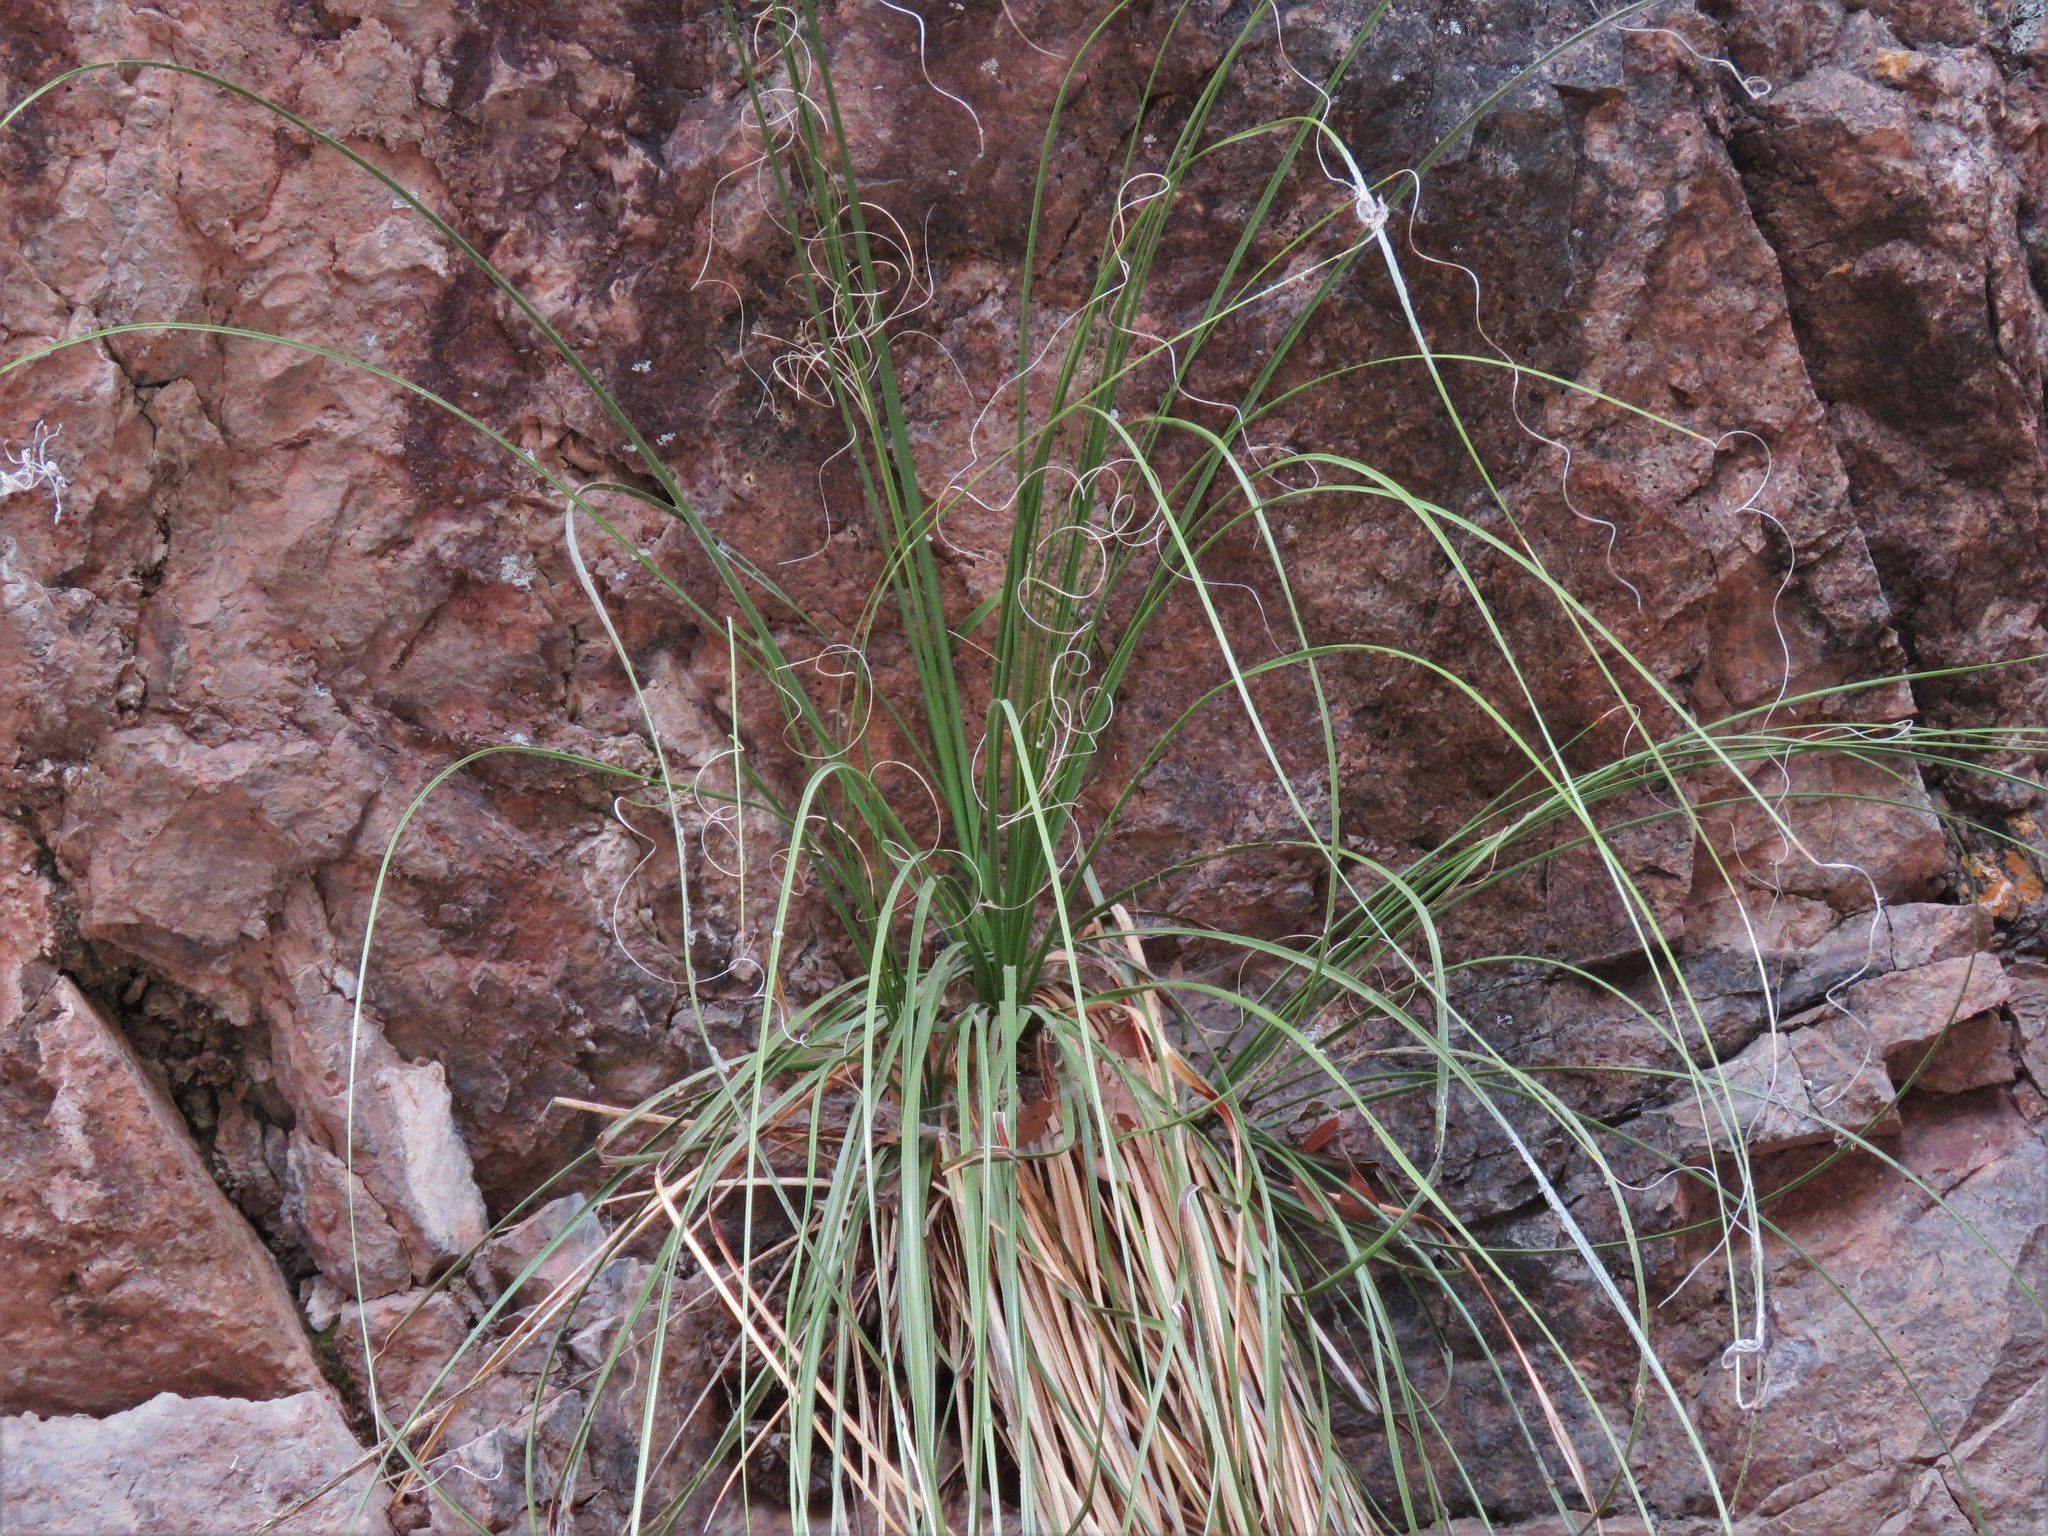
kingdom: Plantae
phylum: Tracheophyta
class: Liliopsida
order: Asparagales
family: Asparagaceae
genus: Nolina
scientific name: Nolina microcarpa
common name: Bear-grass
